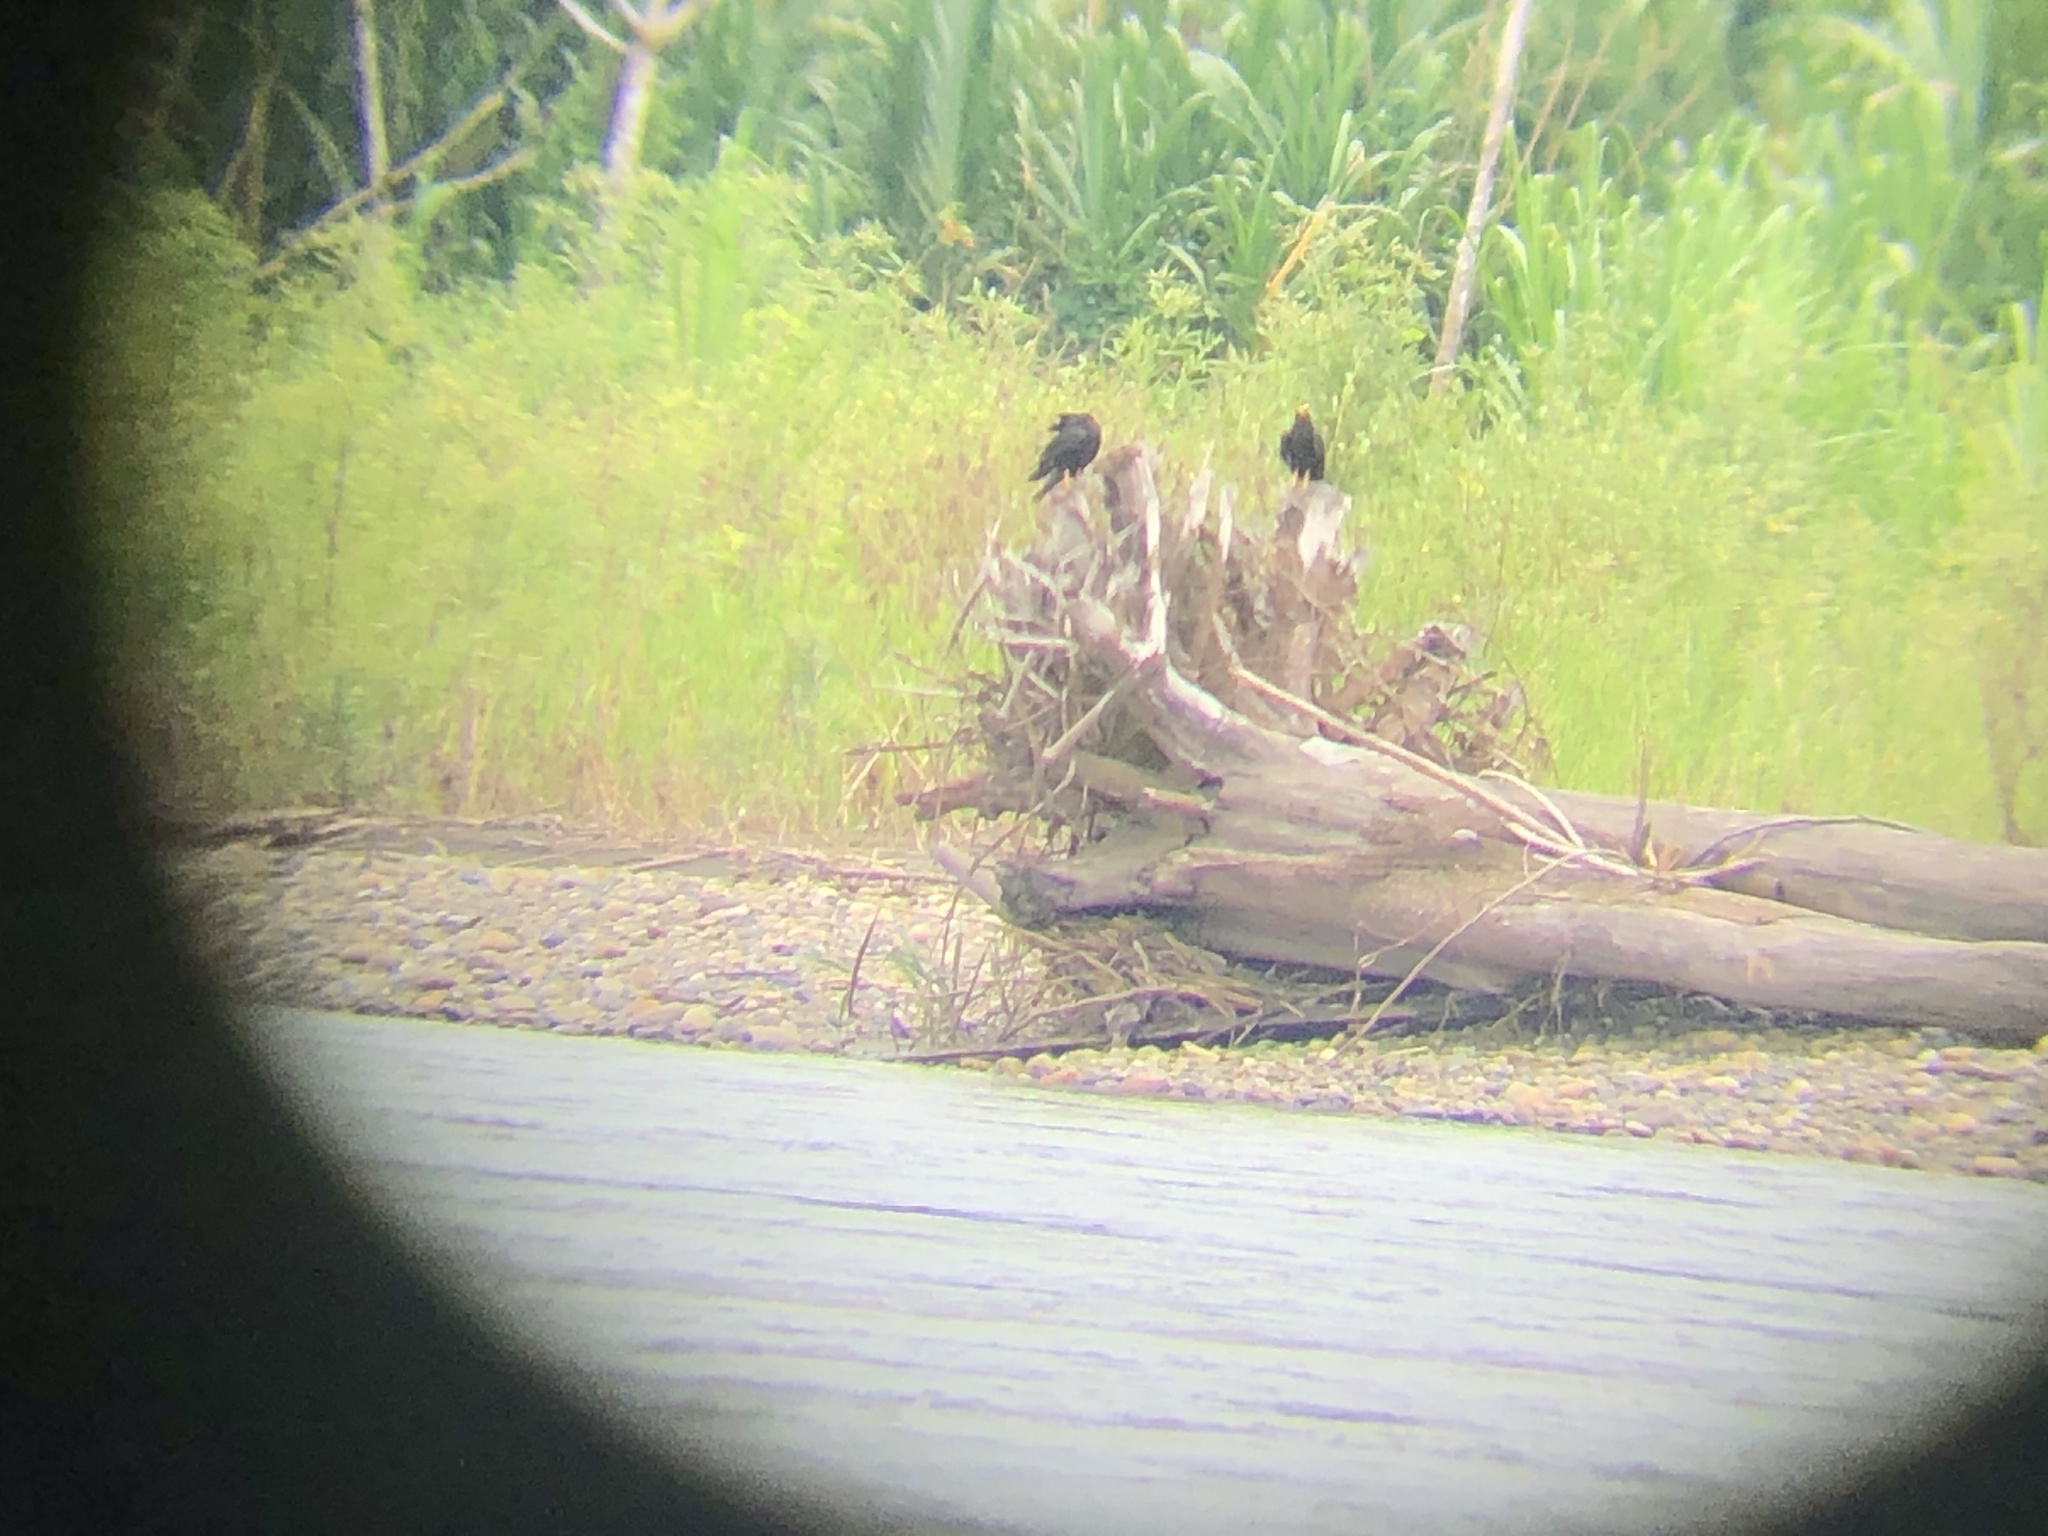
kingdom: Animalia
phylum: Chordata
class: Aves
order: Falconiformes
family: Falconidae
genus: Daptrius
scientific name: Daptrius ater
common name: Black caracara
